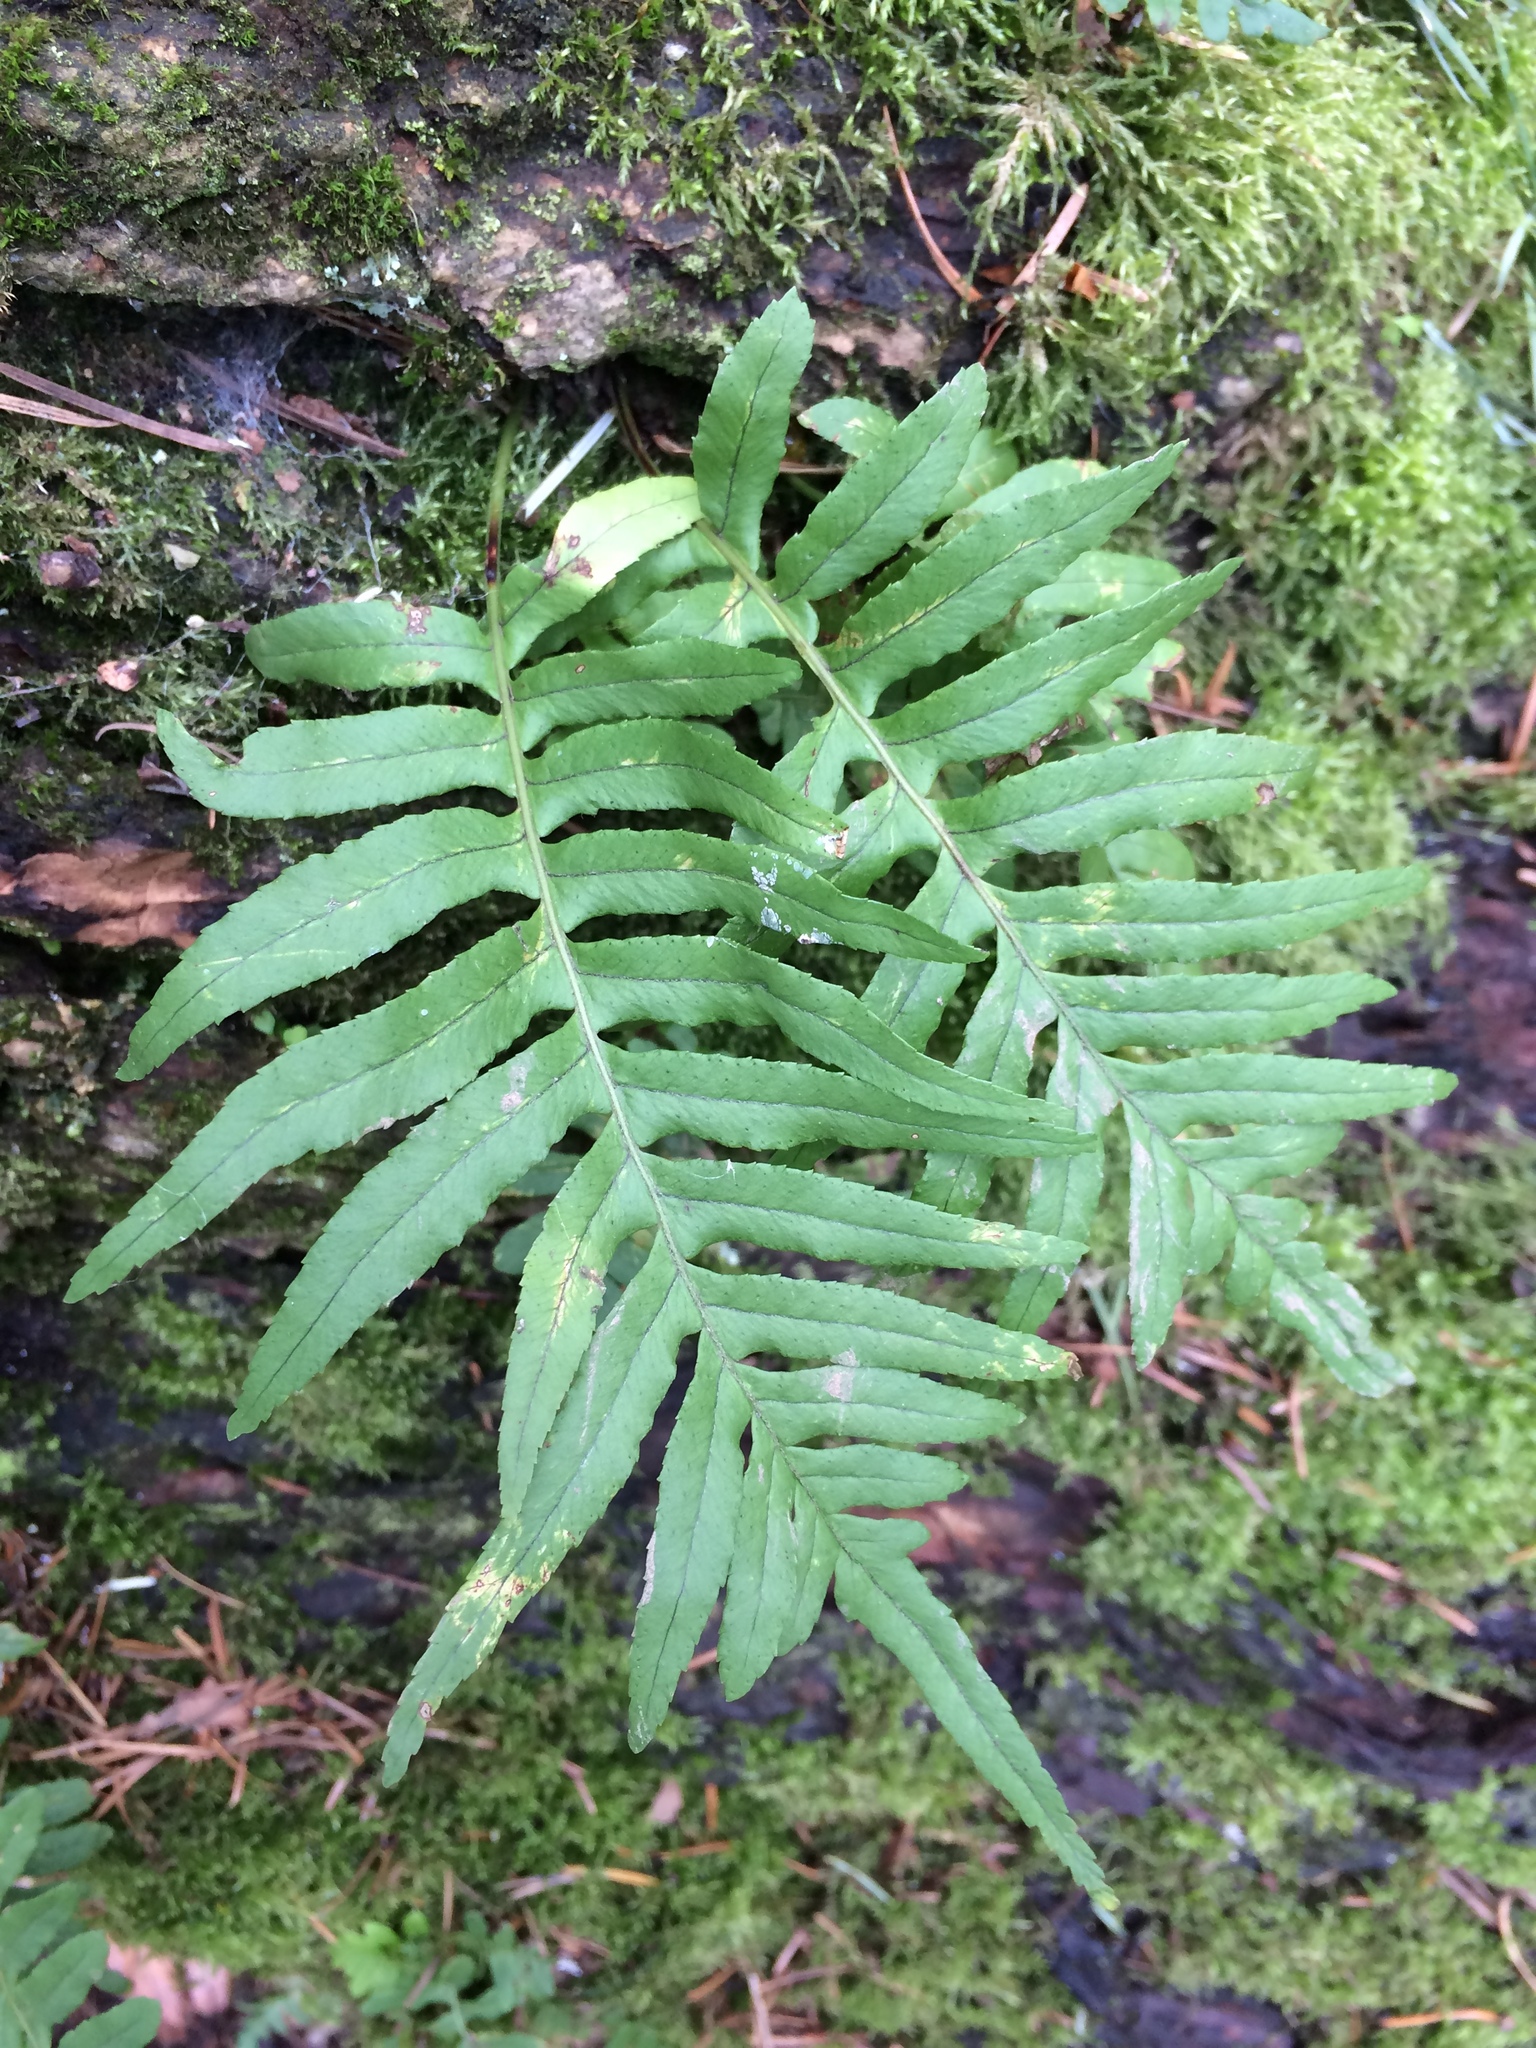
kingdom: Plantae
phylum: Tracheophyta
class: Polypodiopsida
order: Polypodiales
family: Polypodiaceae
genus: Polypodium
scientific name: Polypodium glycyrrhiza
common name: Licorice fern
